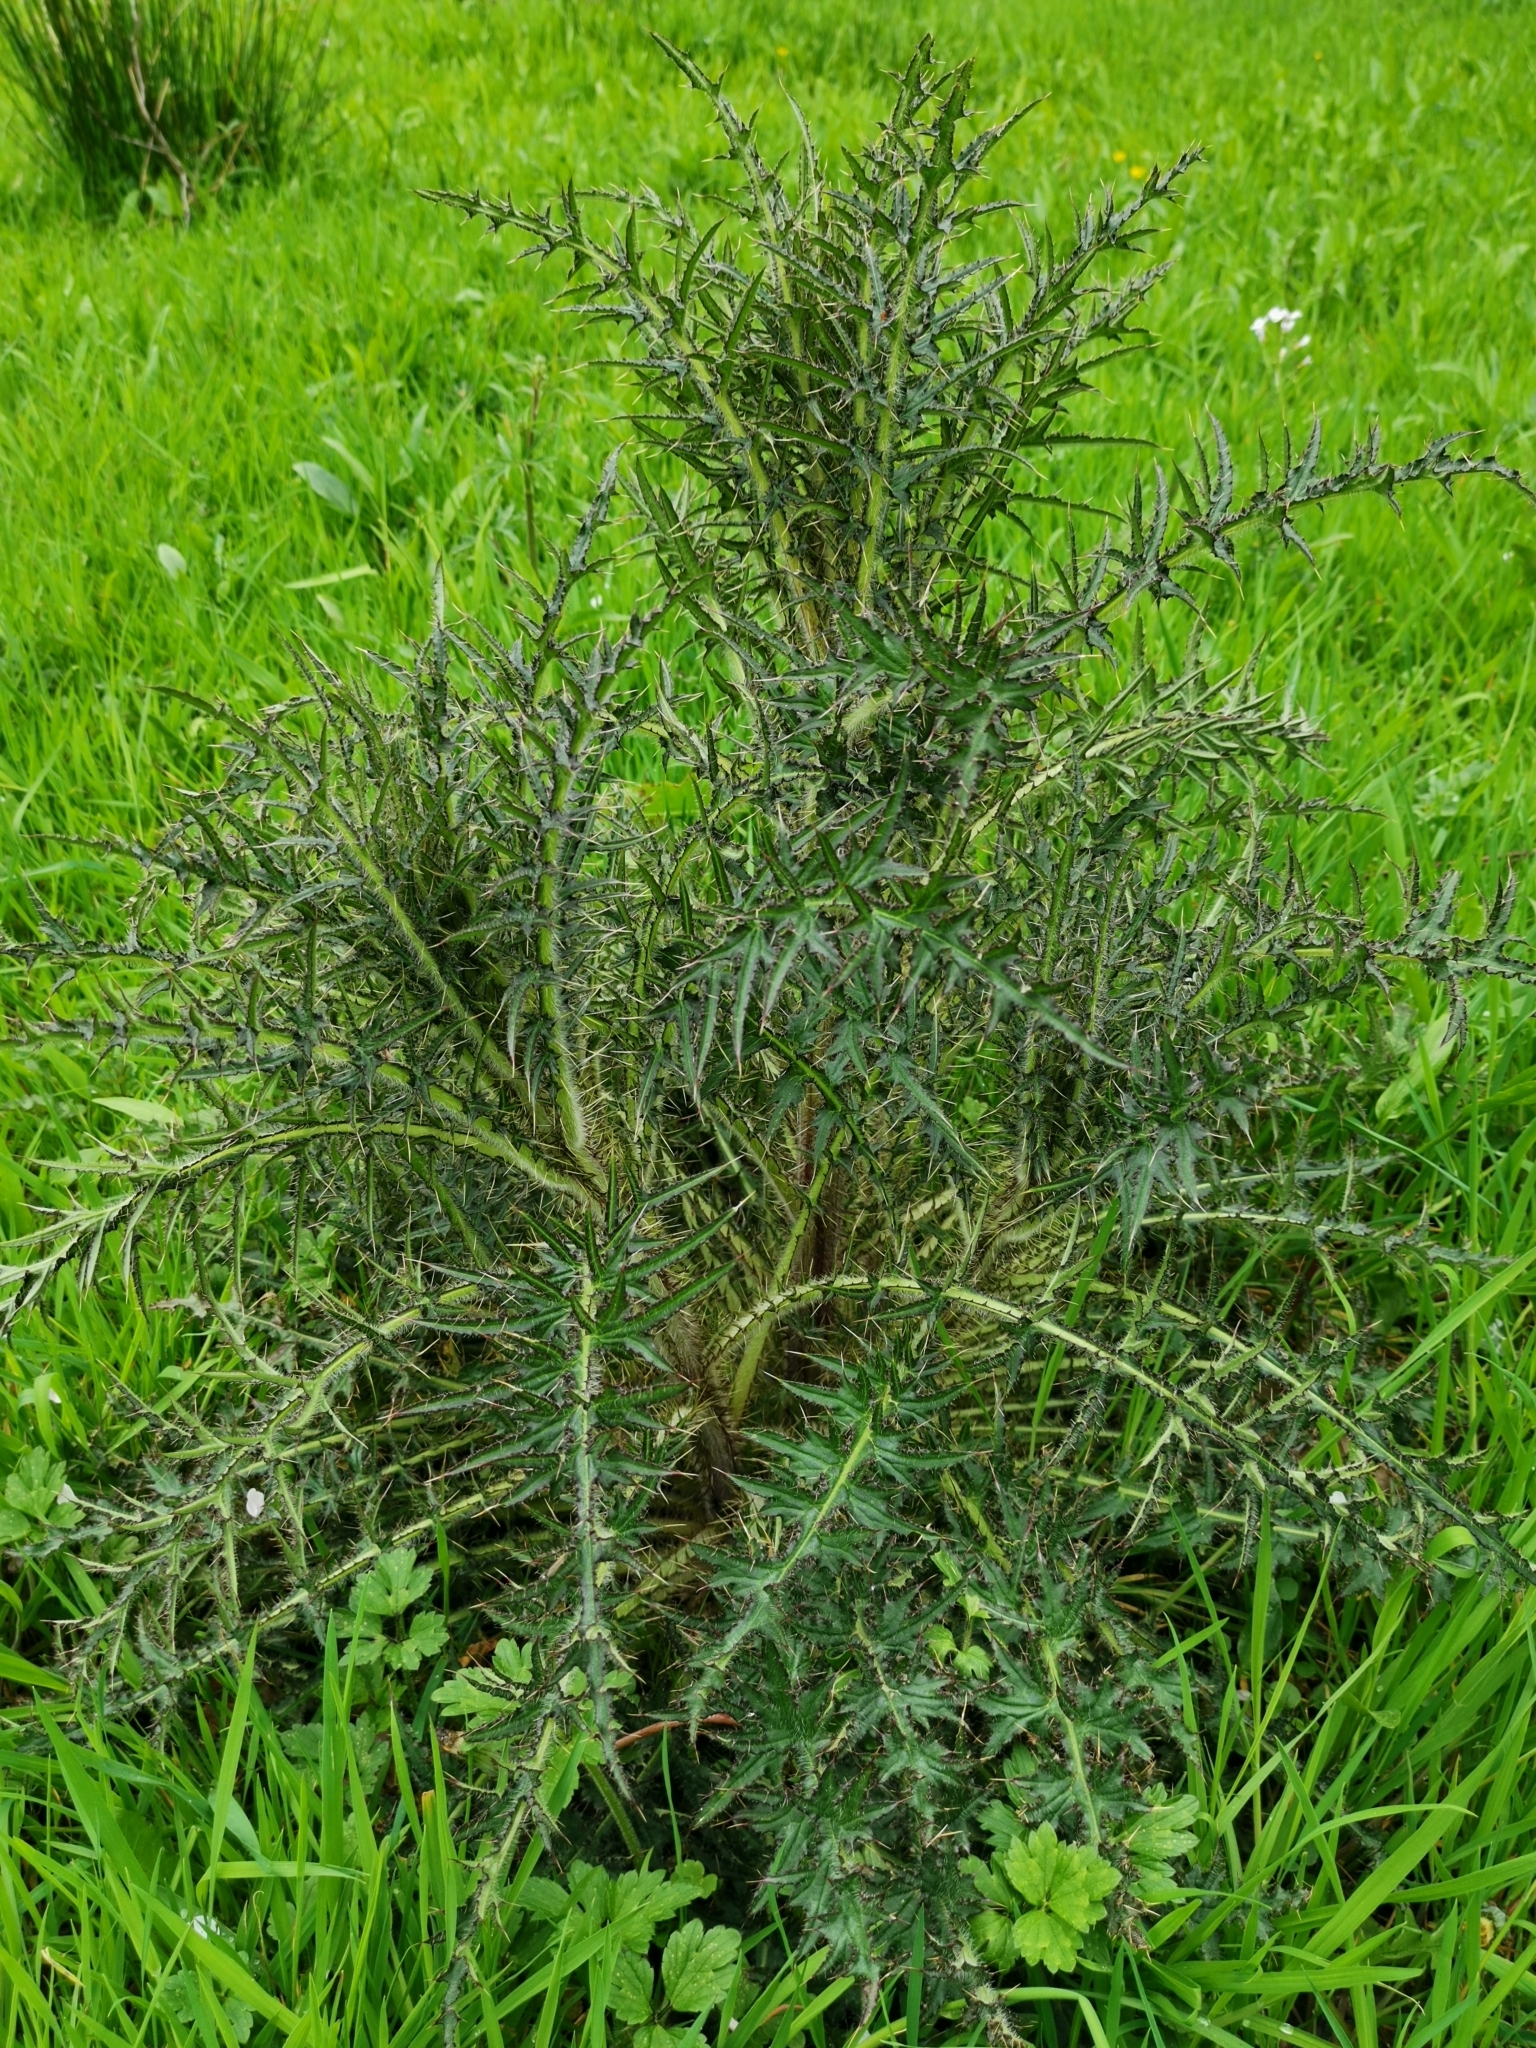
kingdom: Plantae
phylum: Tracheophyta
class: Magnoliopsida
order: Asterales
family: Asteraceae
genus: Cirsium
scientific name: Cirsium palustre
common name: Marsh thistle
